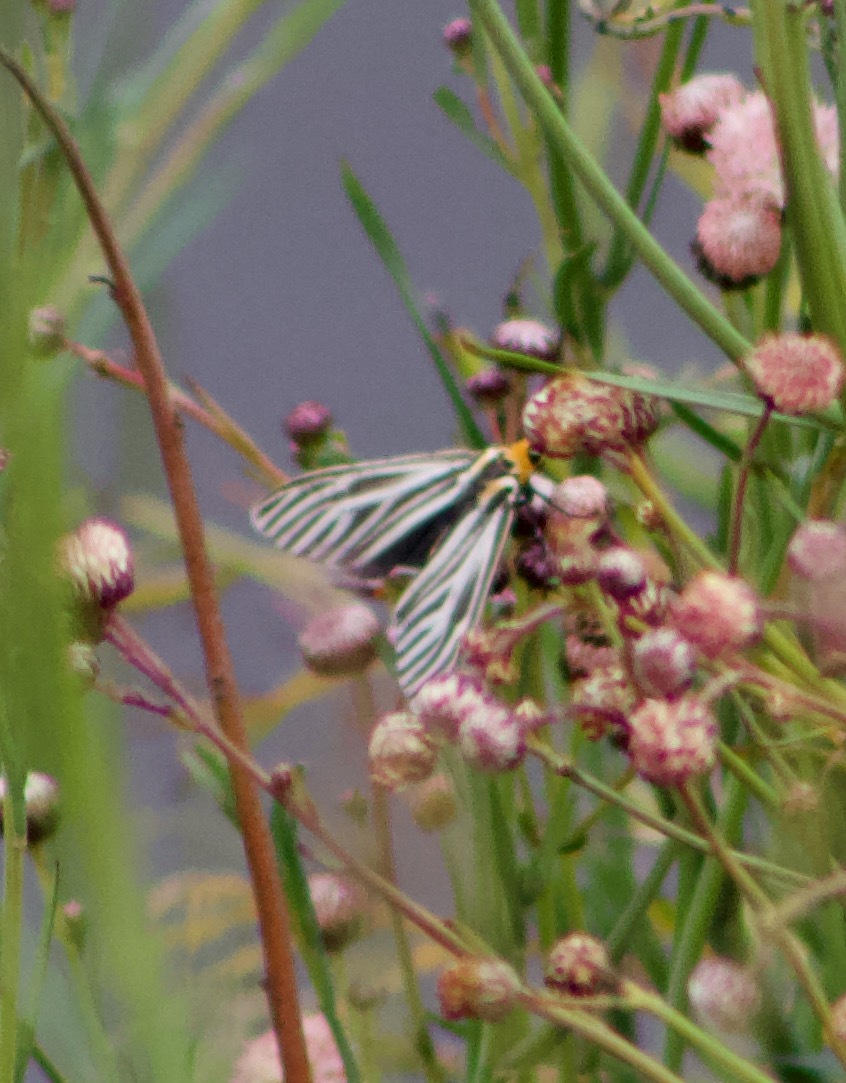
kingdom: Animalia
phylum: Arthropoda
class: Insecta
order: Lepidoptera
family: Erebidae
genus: Ctenucha
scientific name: Ctenucha vittigerum
